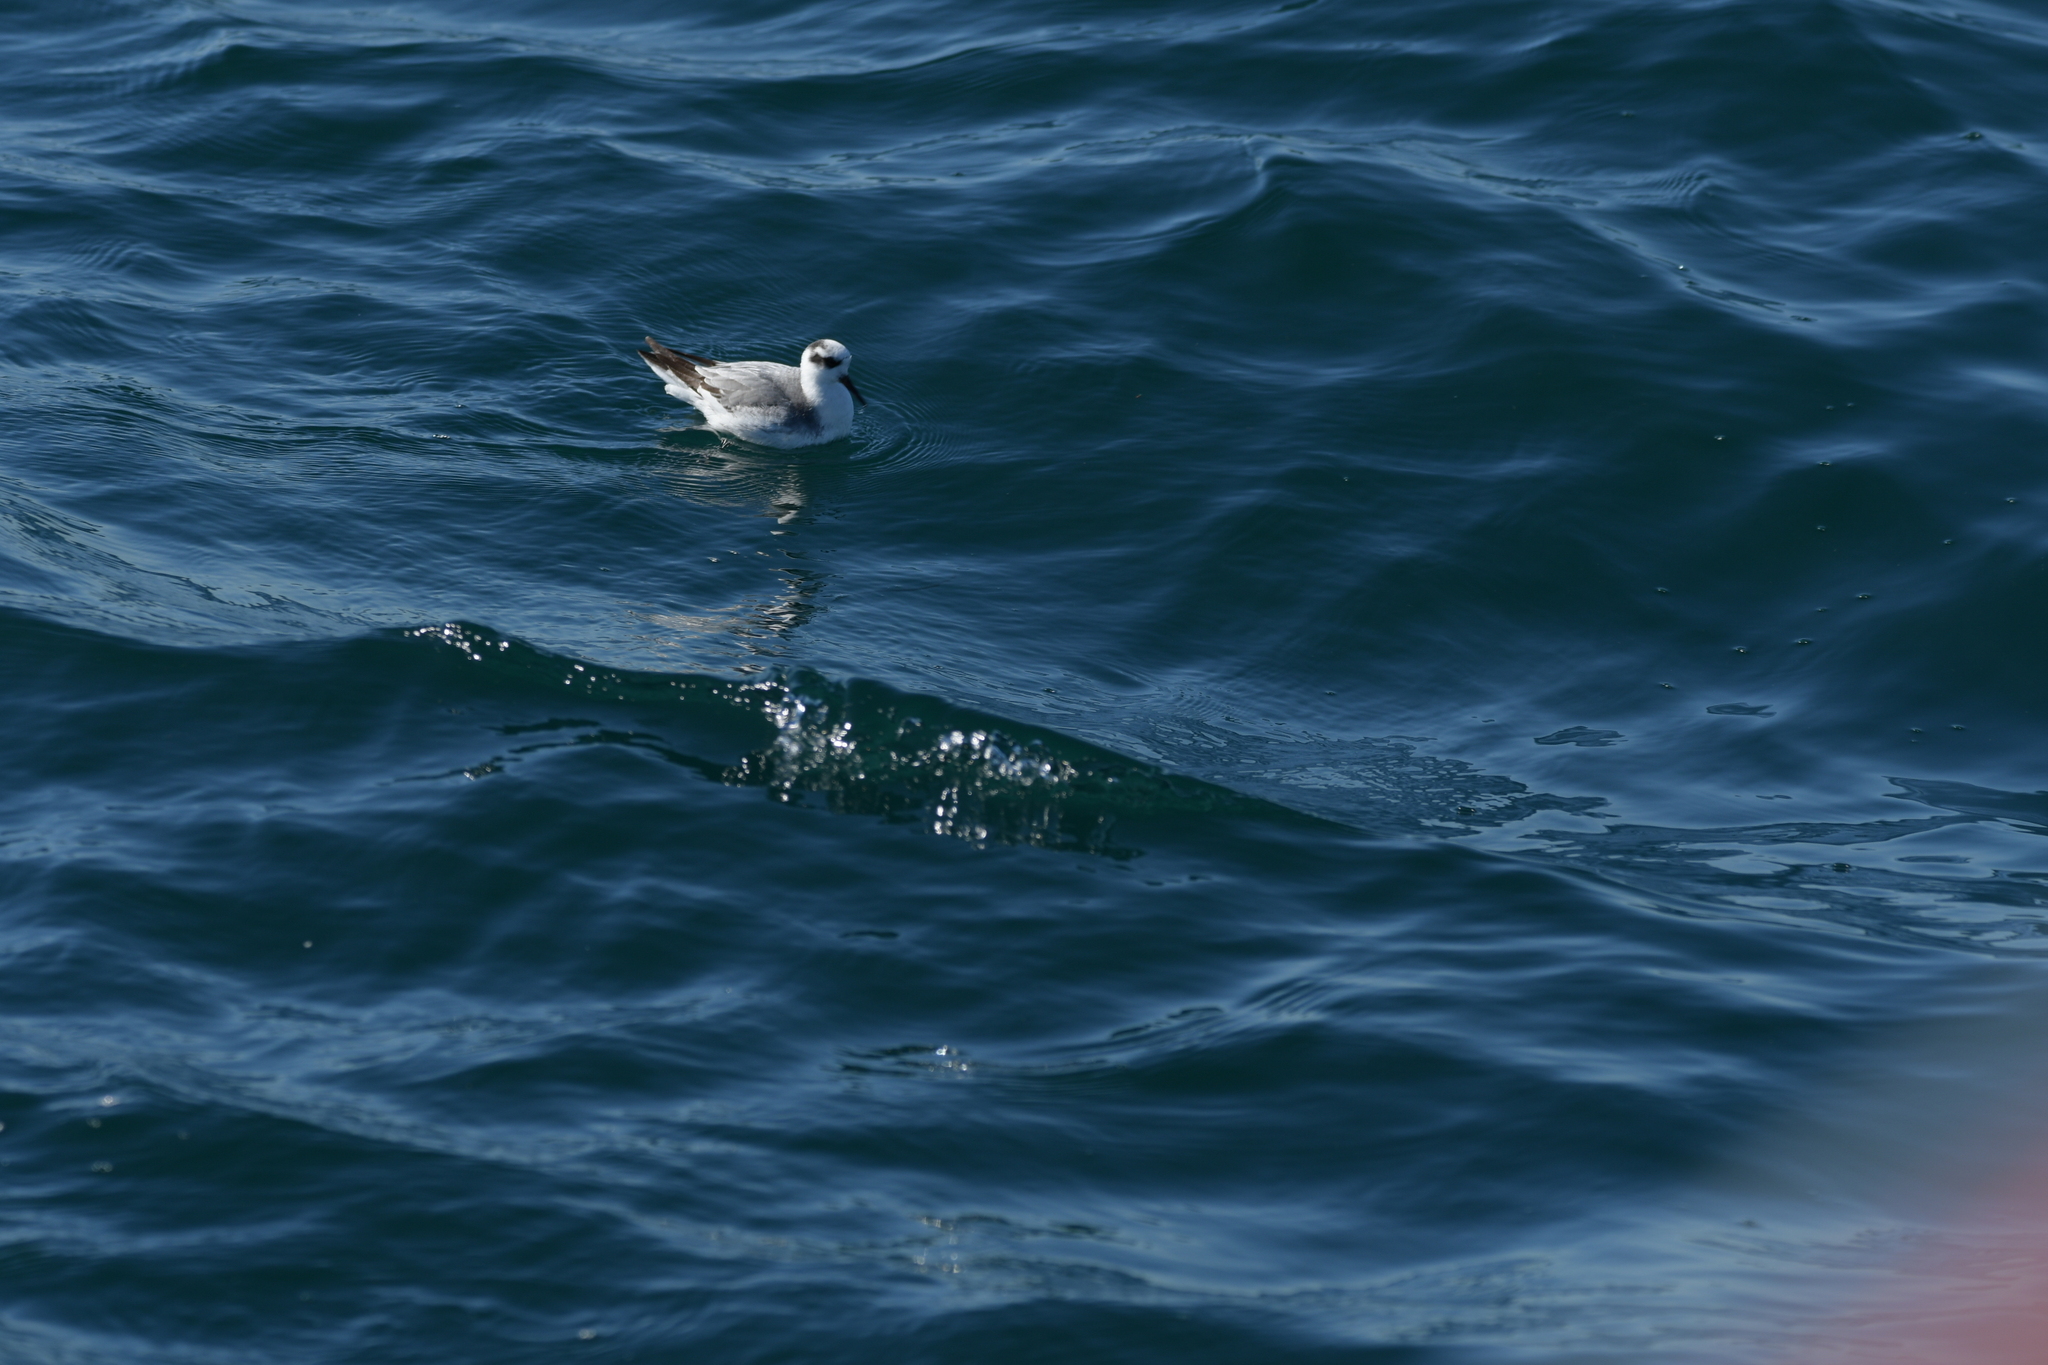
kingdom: Animalia
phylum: Chordata
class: Aves
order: Charadriiformes
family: Scolopacidae
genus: Phalaropus
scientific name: Phalaropus fulicarius
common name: Red phalarope
